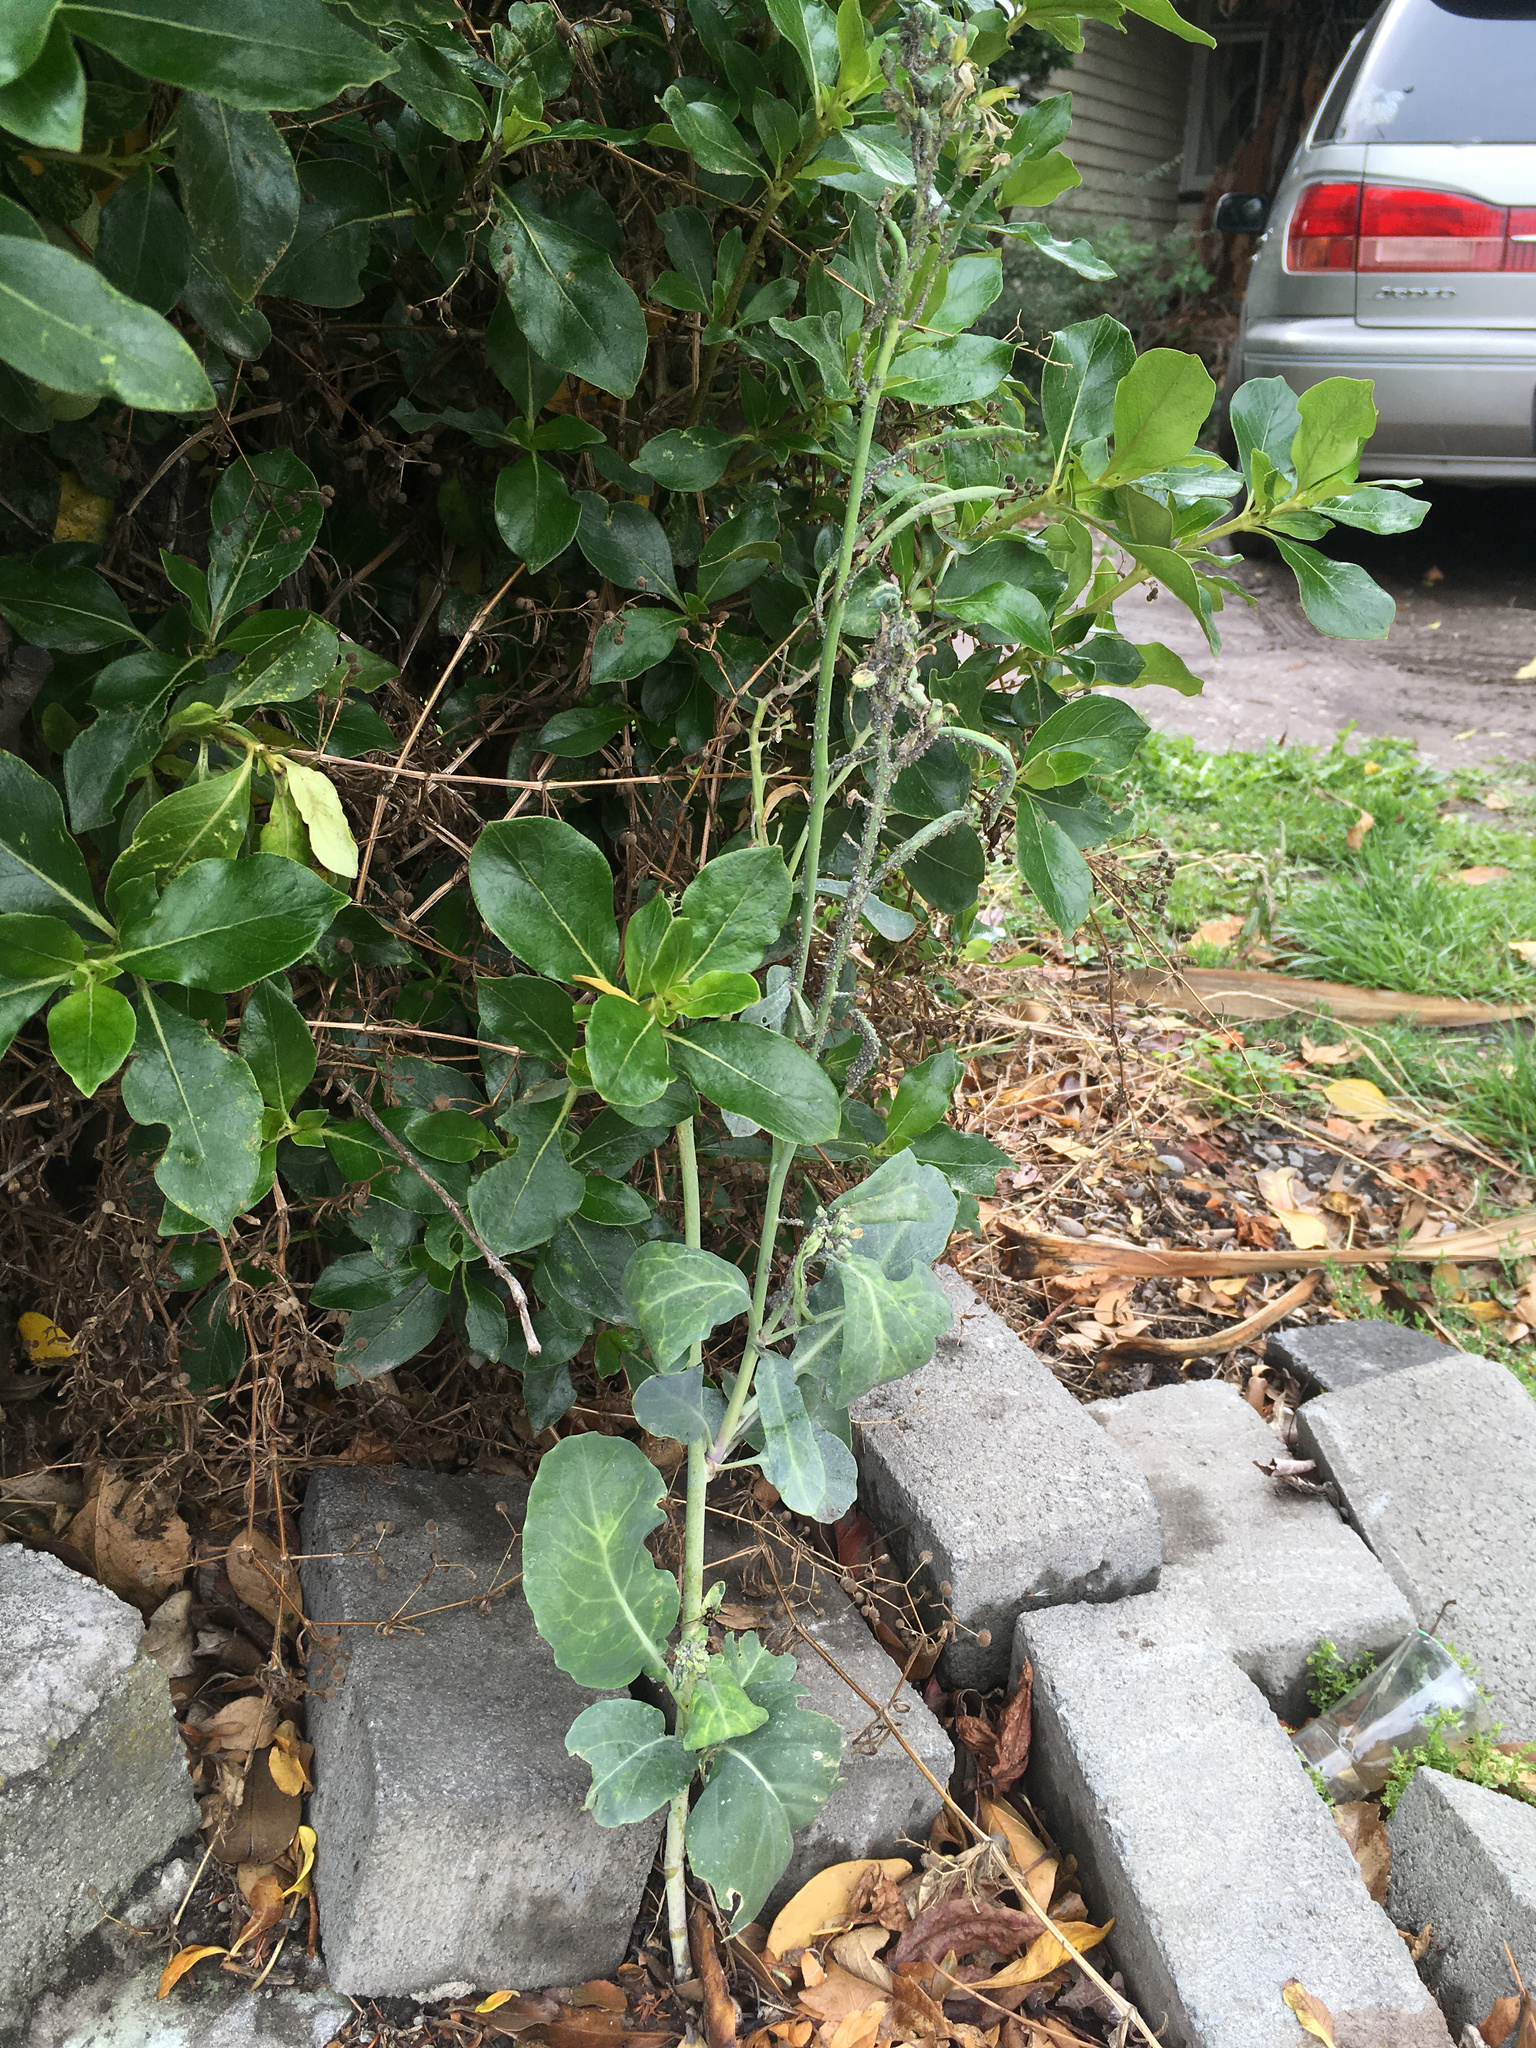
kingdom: Plantae
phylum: Tracheophyta
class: Magnoliopsida
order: Brassicales
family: Brassicaceae
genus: Brassica
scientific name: Brassica oleracea
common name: Cabbage
